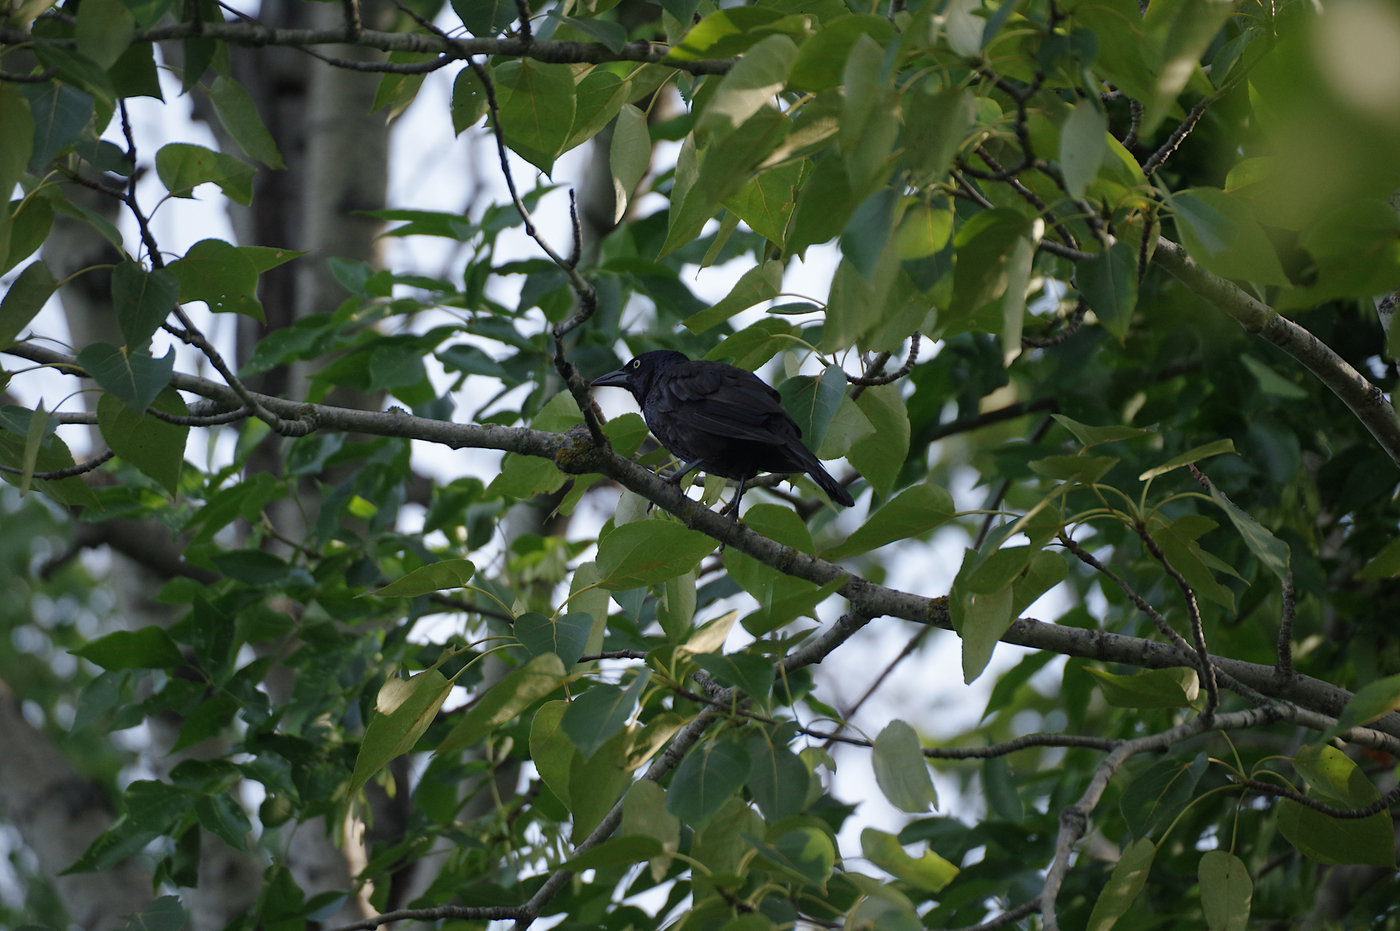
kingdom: Animalia
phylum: Chordata
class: Aves
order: Passeriformes
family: Icteridae
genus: Quiscalus
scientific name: Quiscalus quiscula
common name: Common grackle
